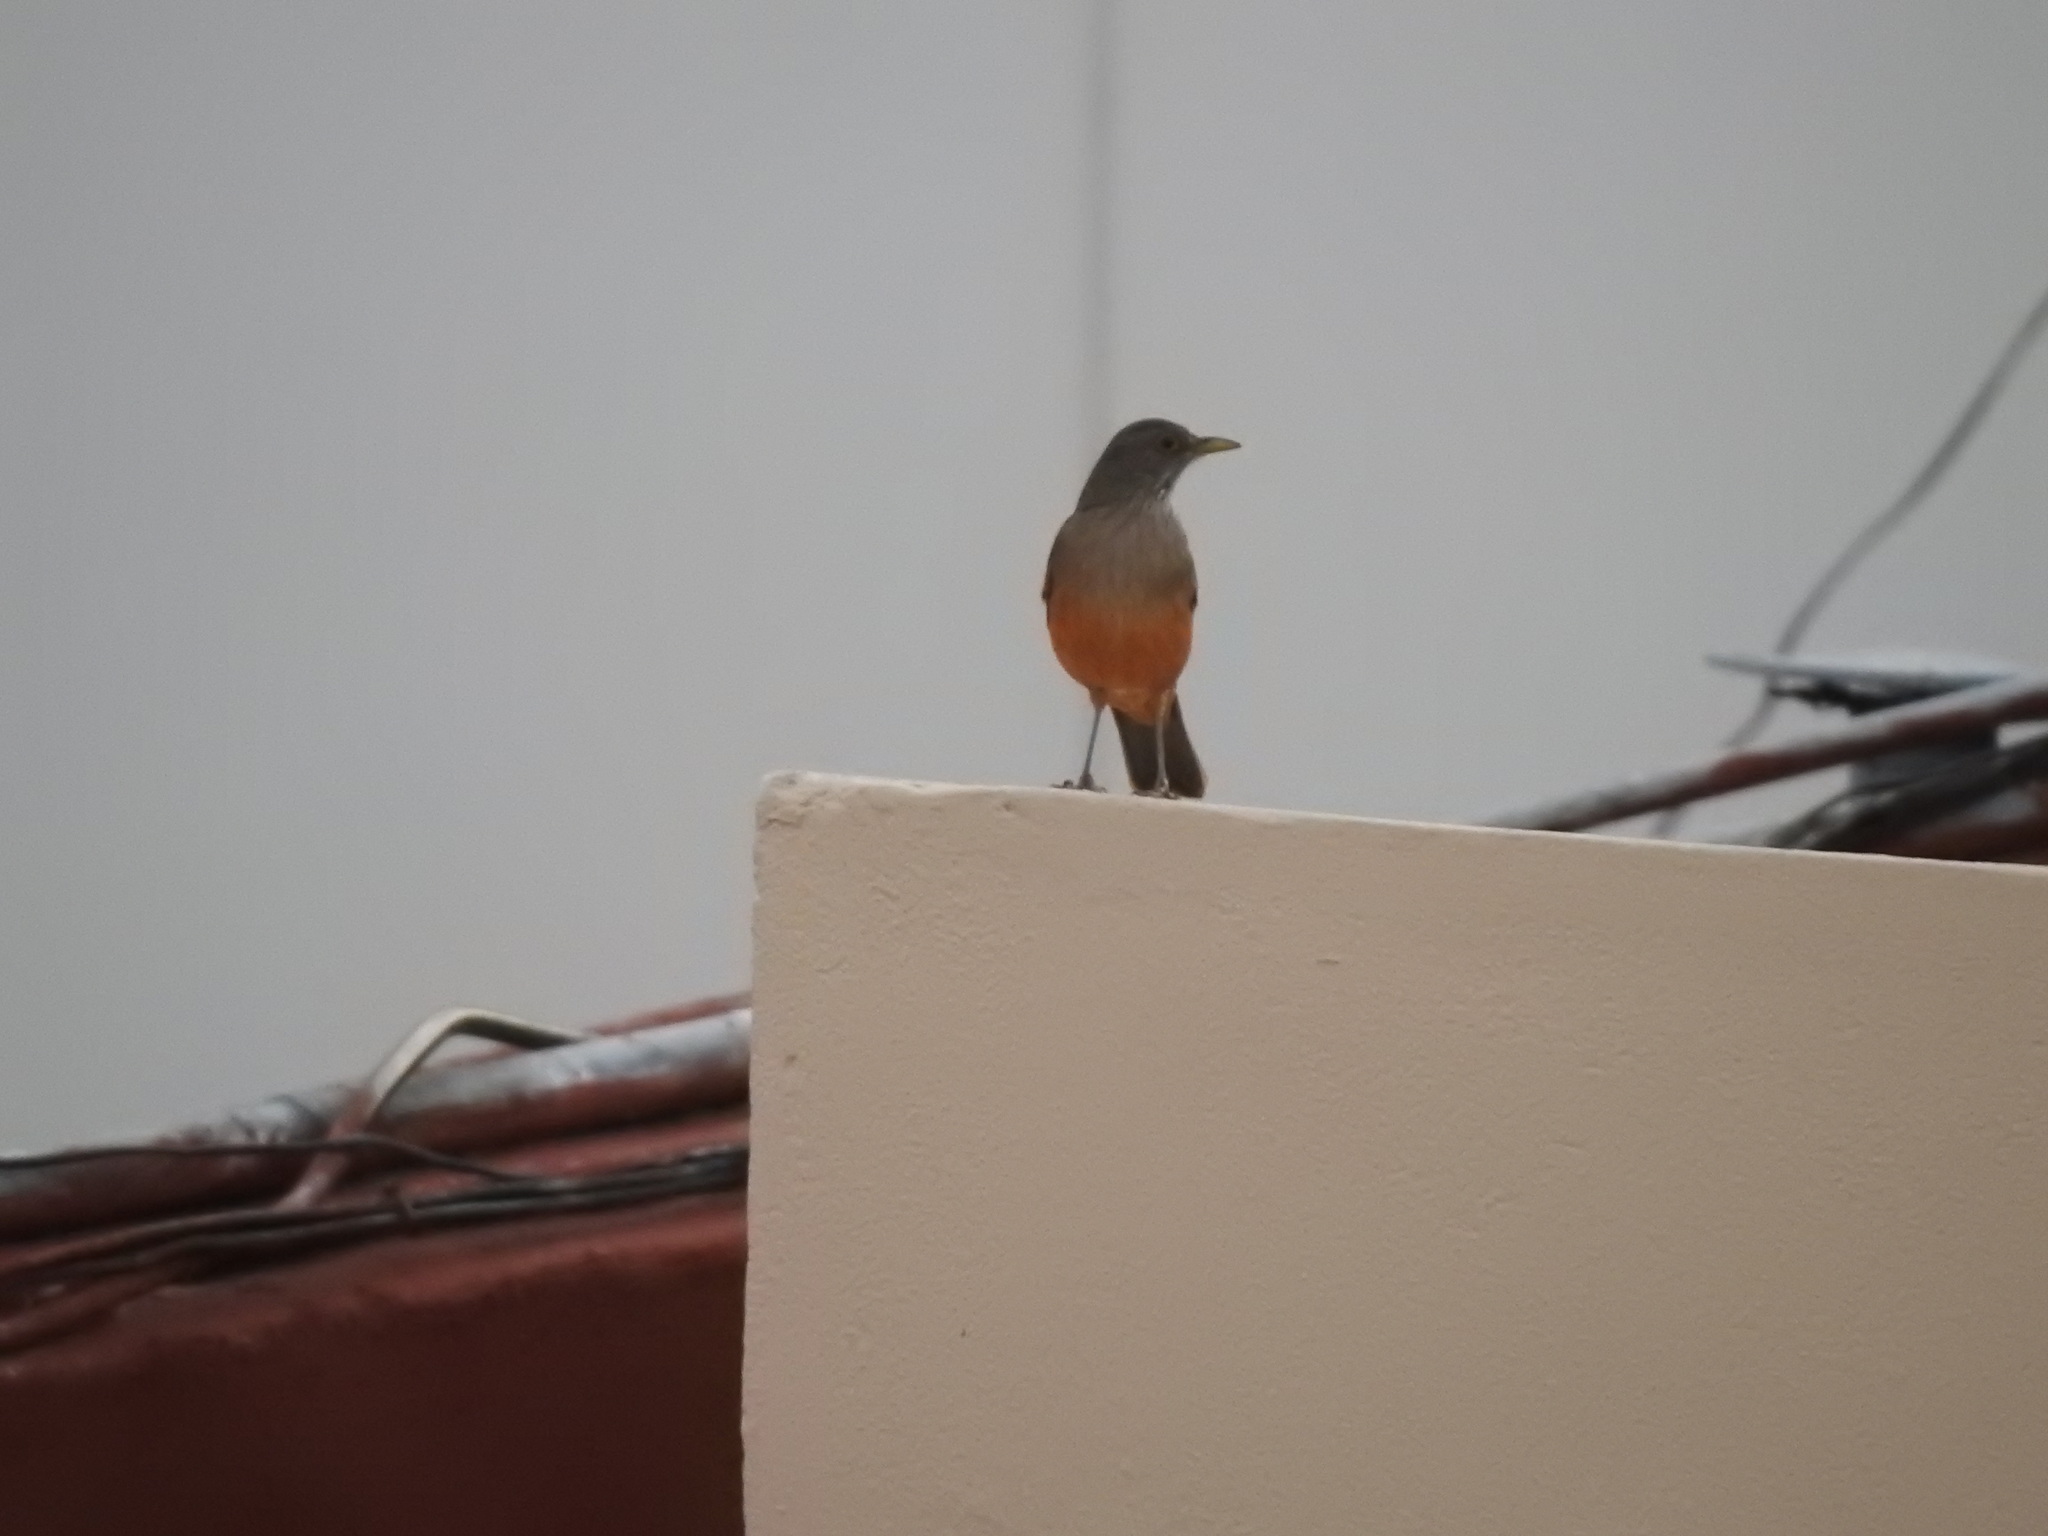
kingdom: Animalia
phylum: Chordata
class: Aves
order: Passeriformes
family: Turdidae
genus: Turdus
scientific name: Turdus rufiventris
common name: Rufous-bellied thrush
